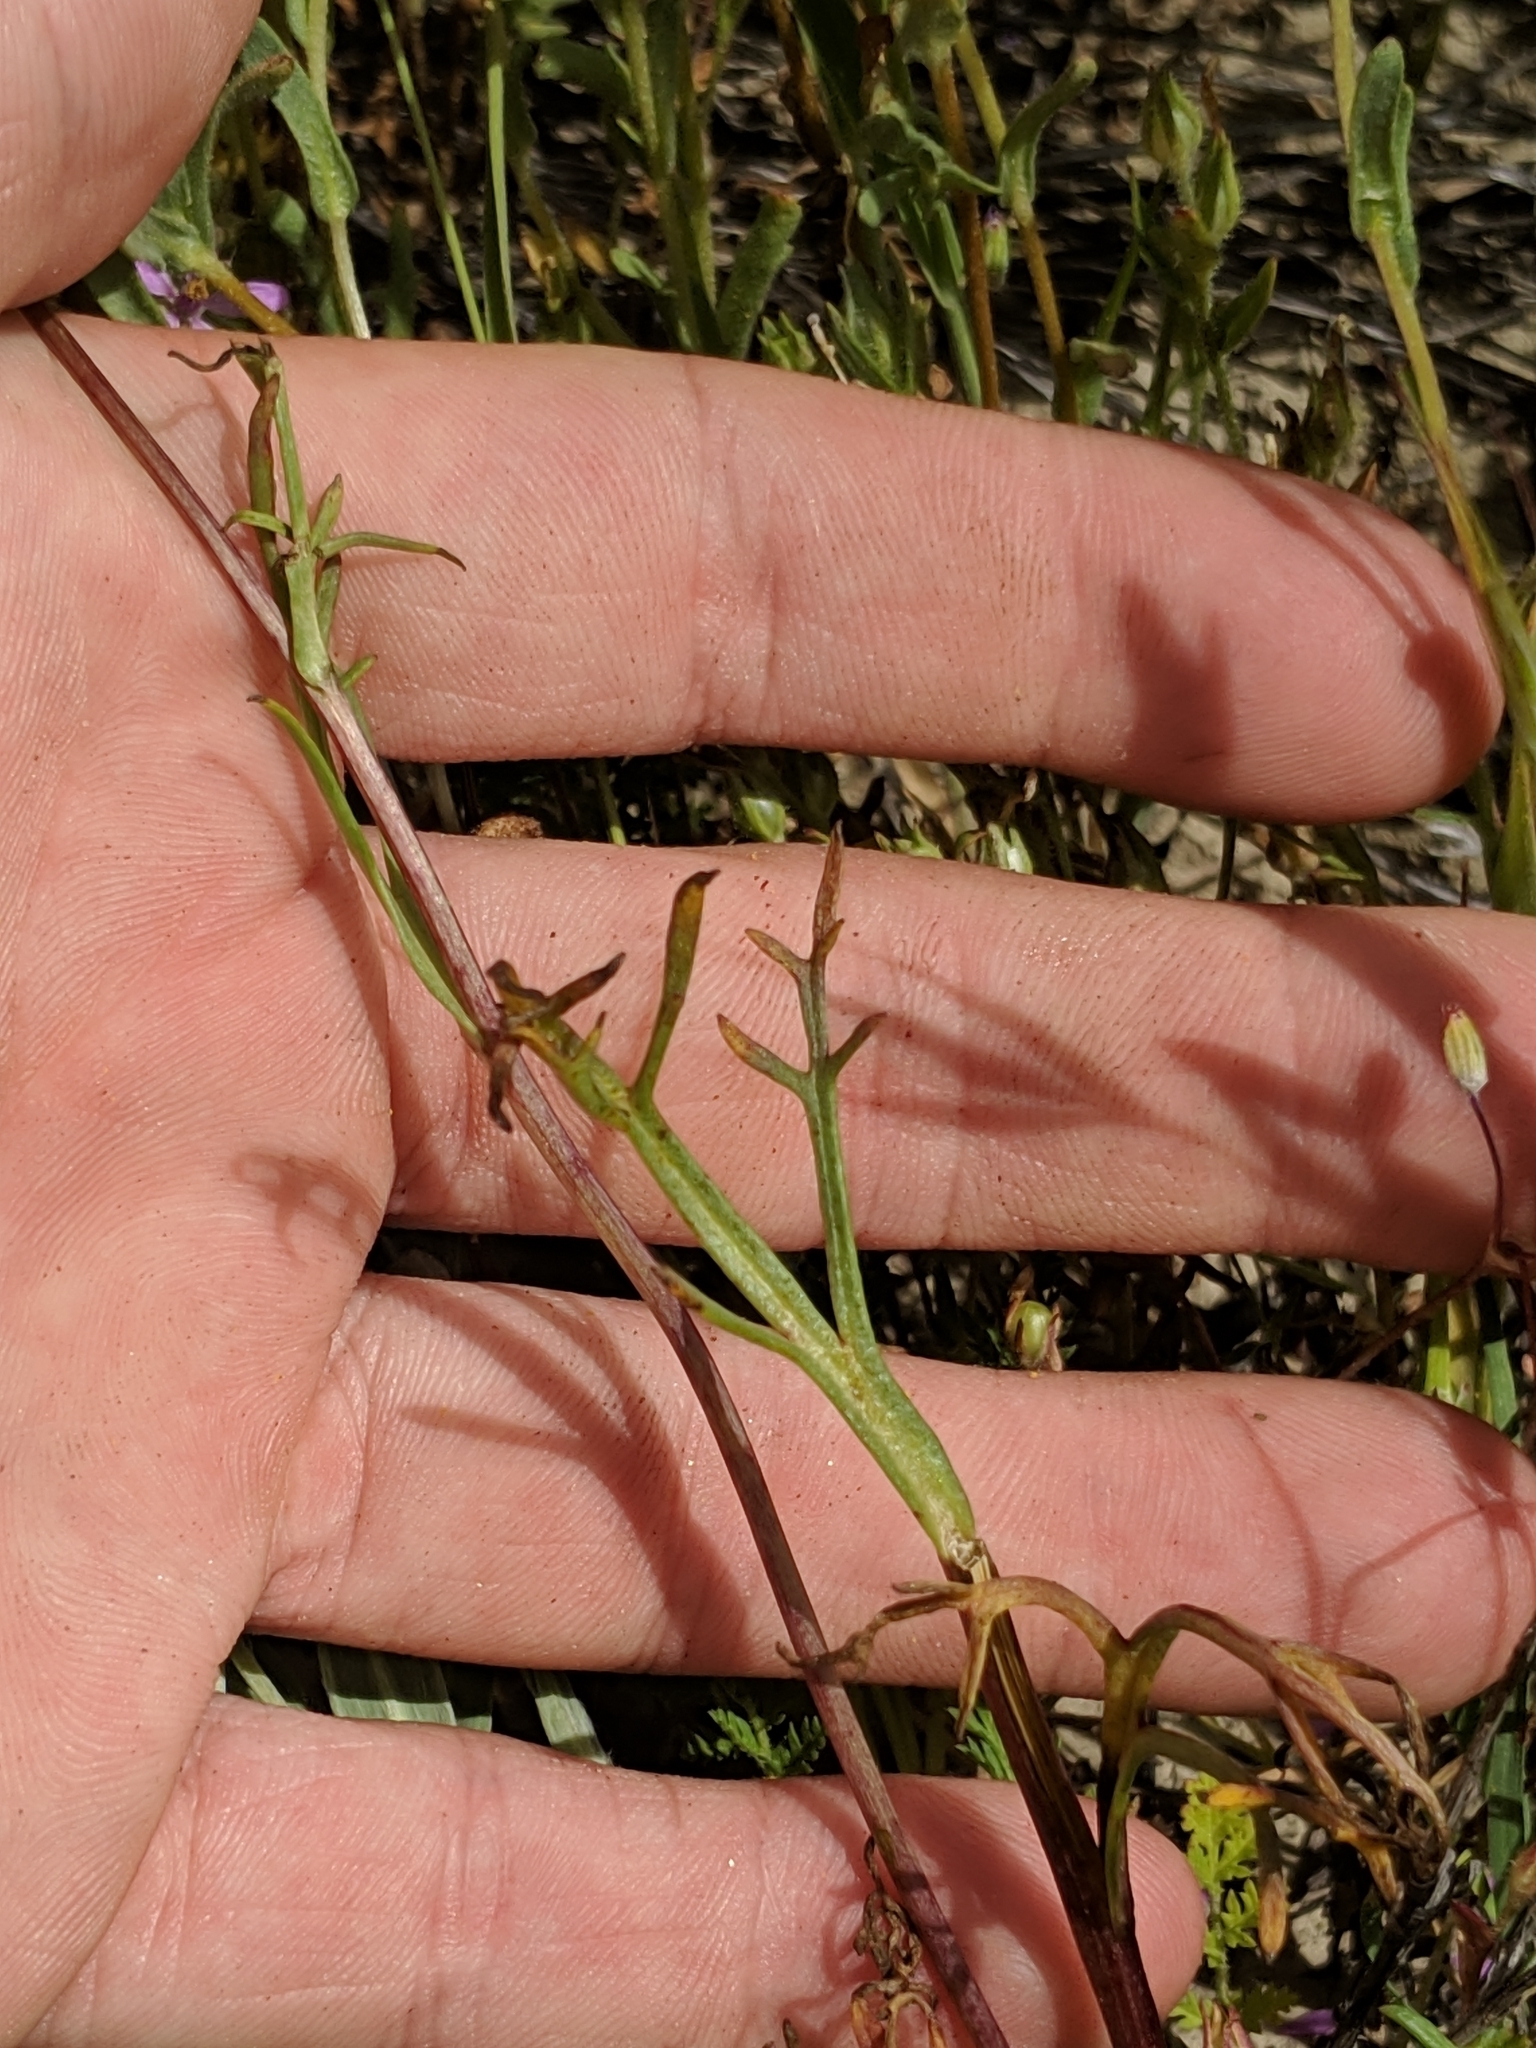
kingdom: Plantae
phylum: Tracheophyta
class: Magnoliopsida
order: Asterales
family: Asteraceae
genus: Coreopsis
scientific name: Coreopsis calliopsidea
